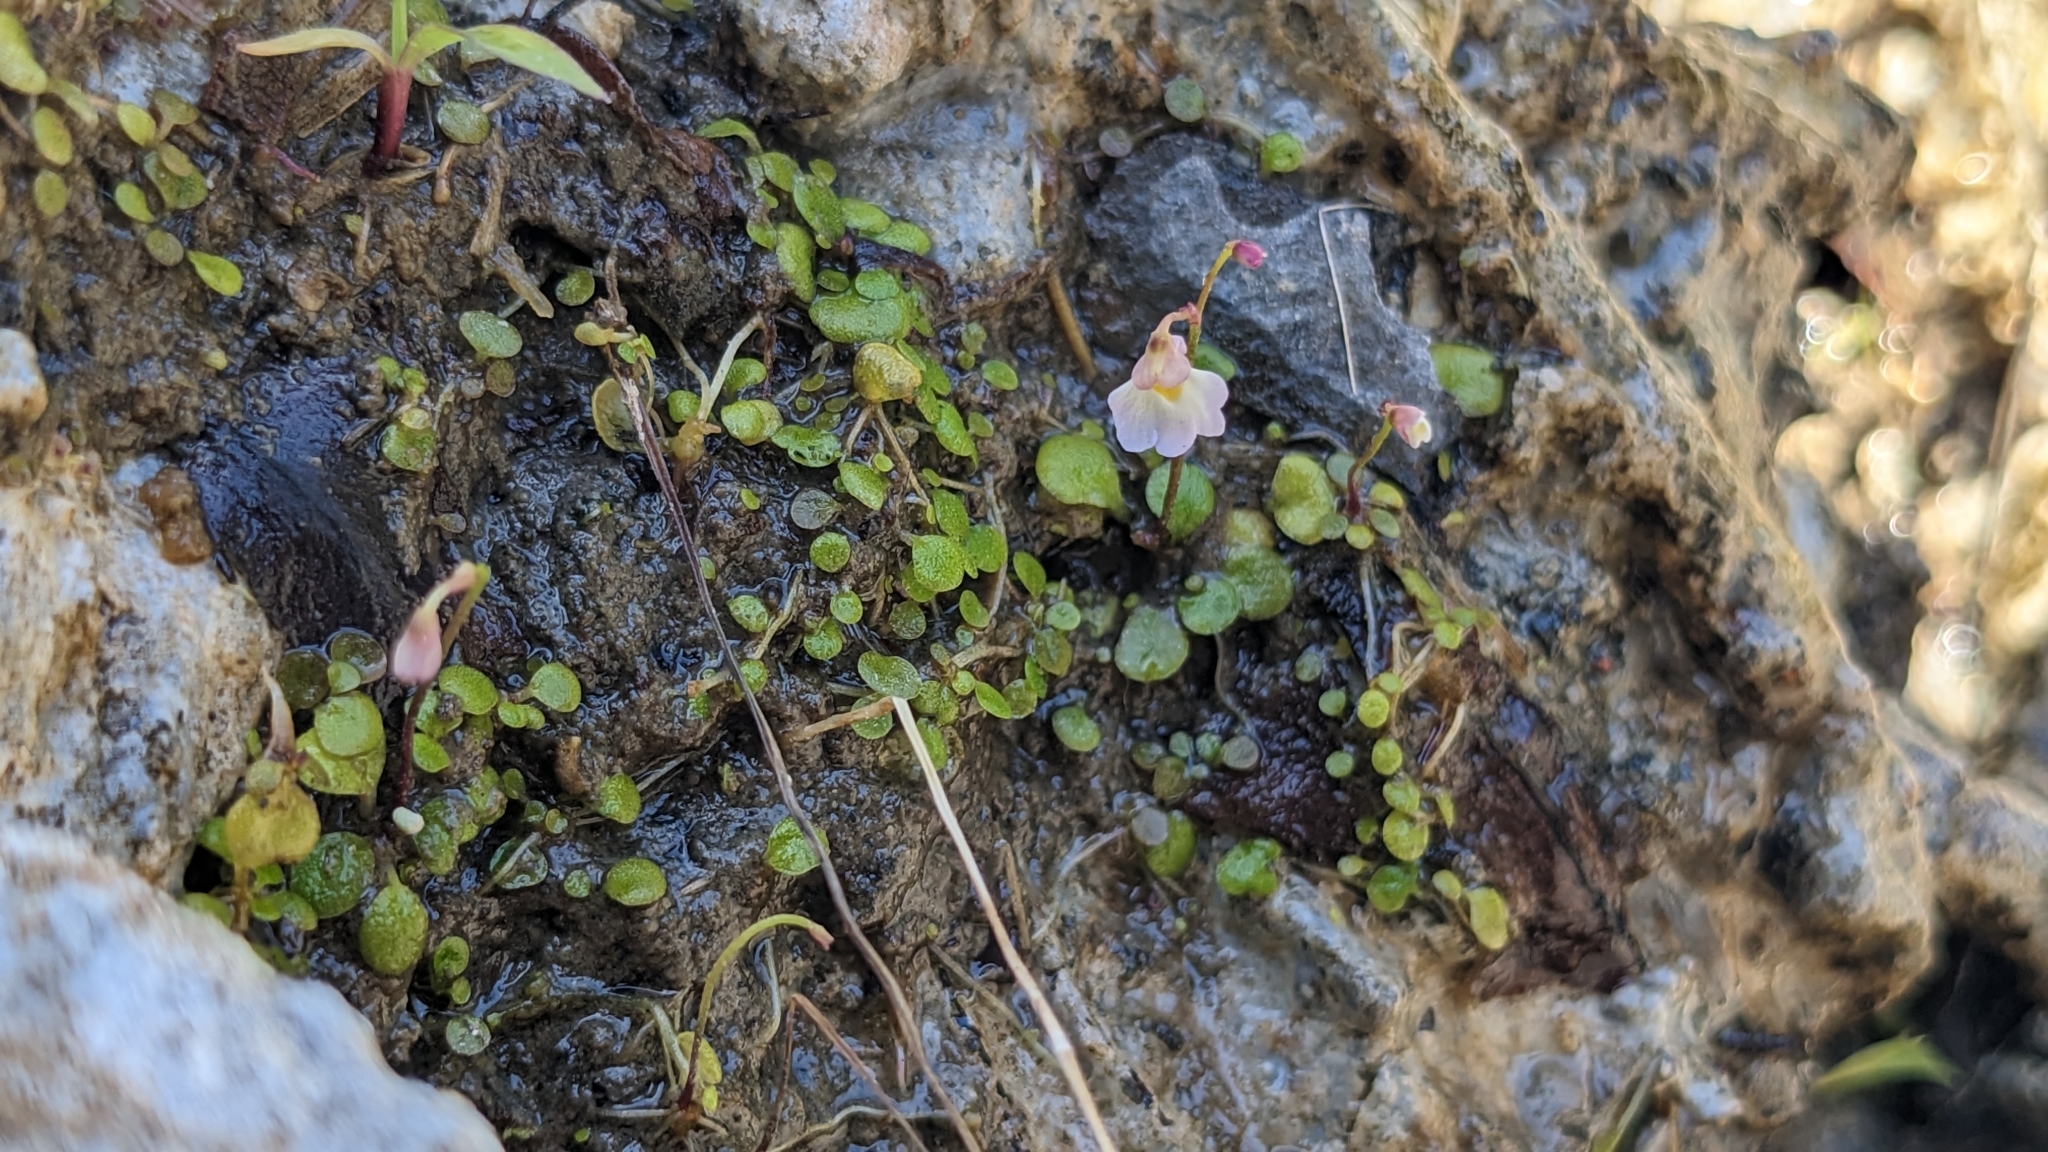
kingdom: Plantae
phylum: Tracheophyta
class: Magnoliopsida
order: Lamiales
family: Lentibulariaceae
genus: Utricularia
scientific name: Utricularia striatula
